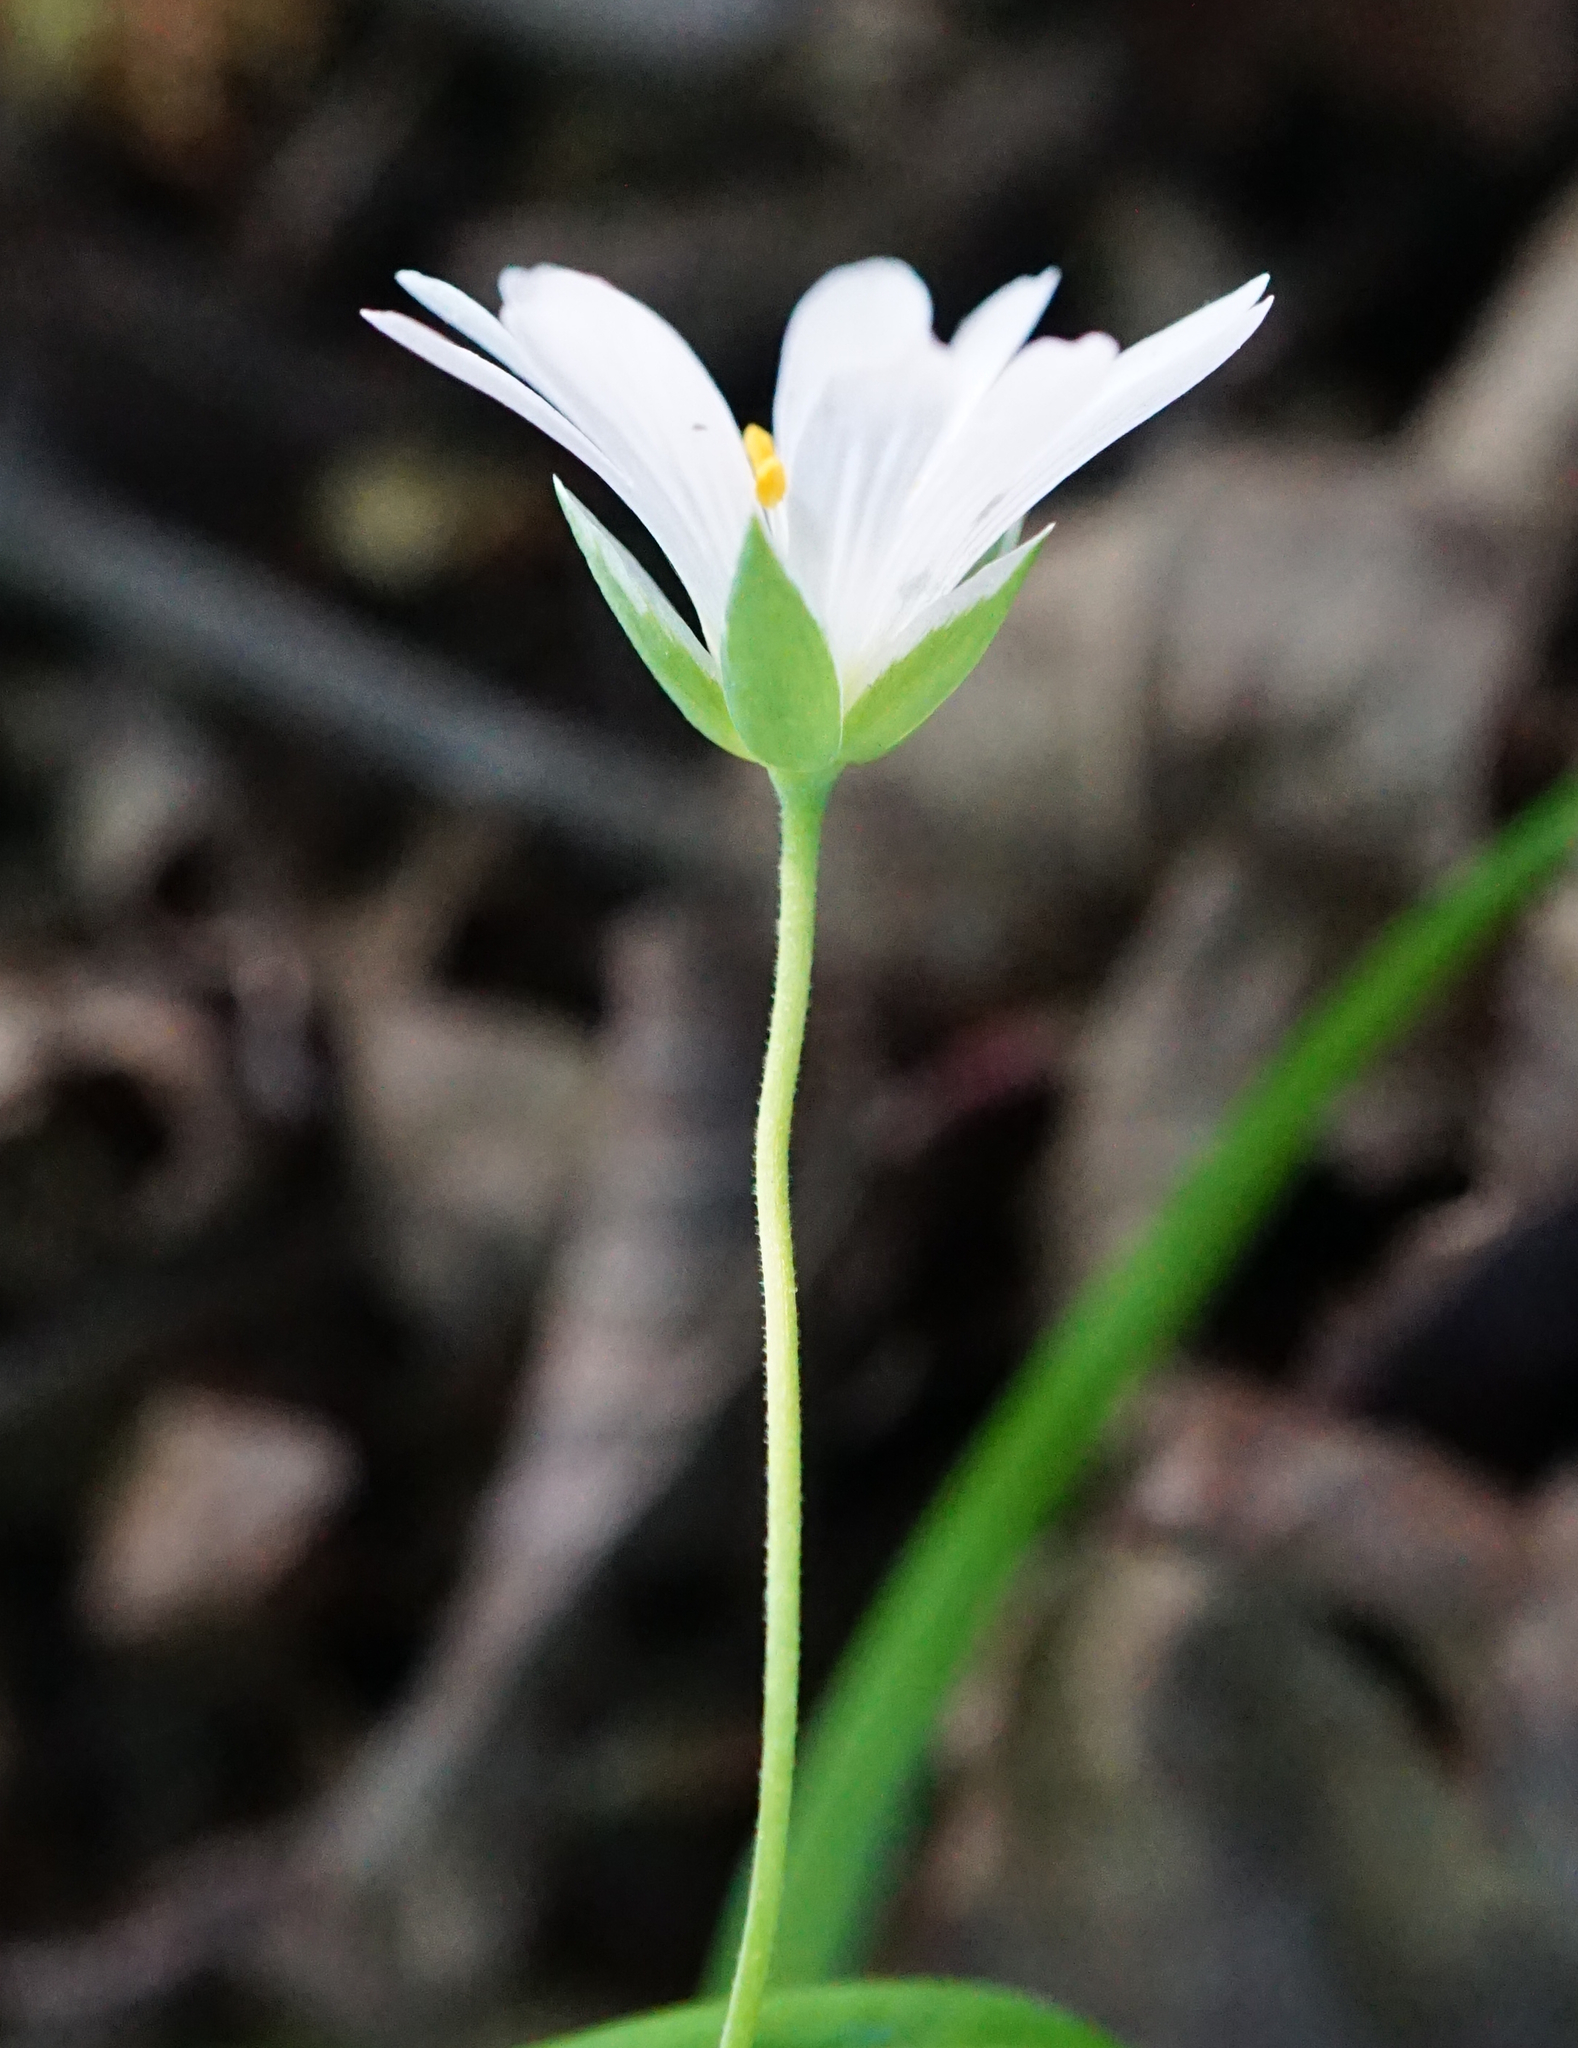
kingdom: Plantae
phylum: Tracheophyta
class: Magnoliopsida
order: Caryophyllales
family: Caryophyllaceae
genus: Rabelera
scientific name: Rabelera holostea
